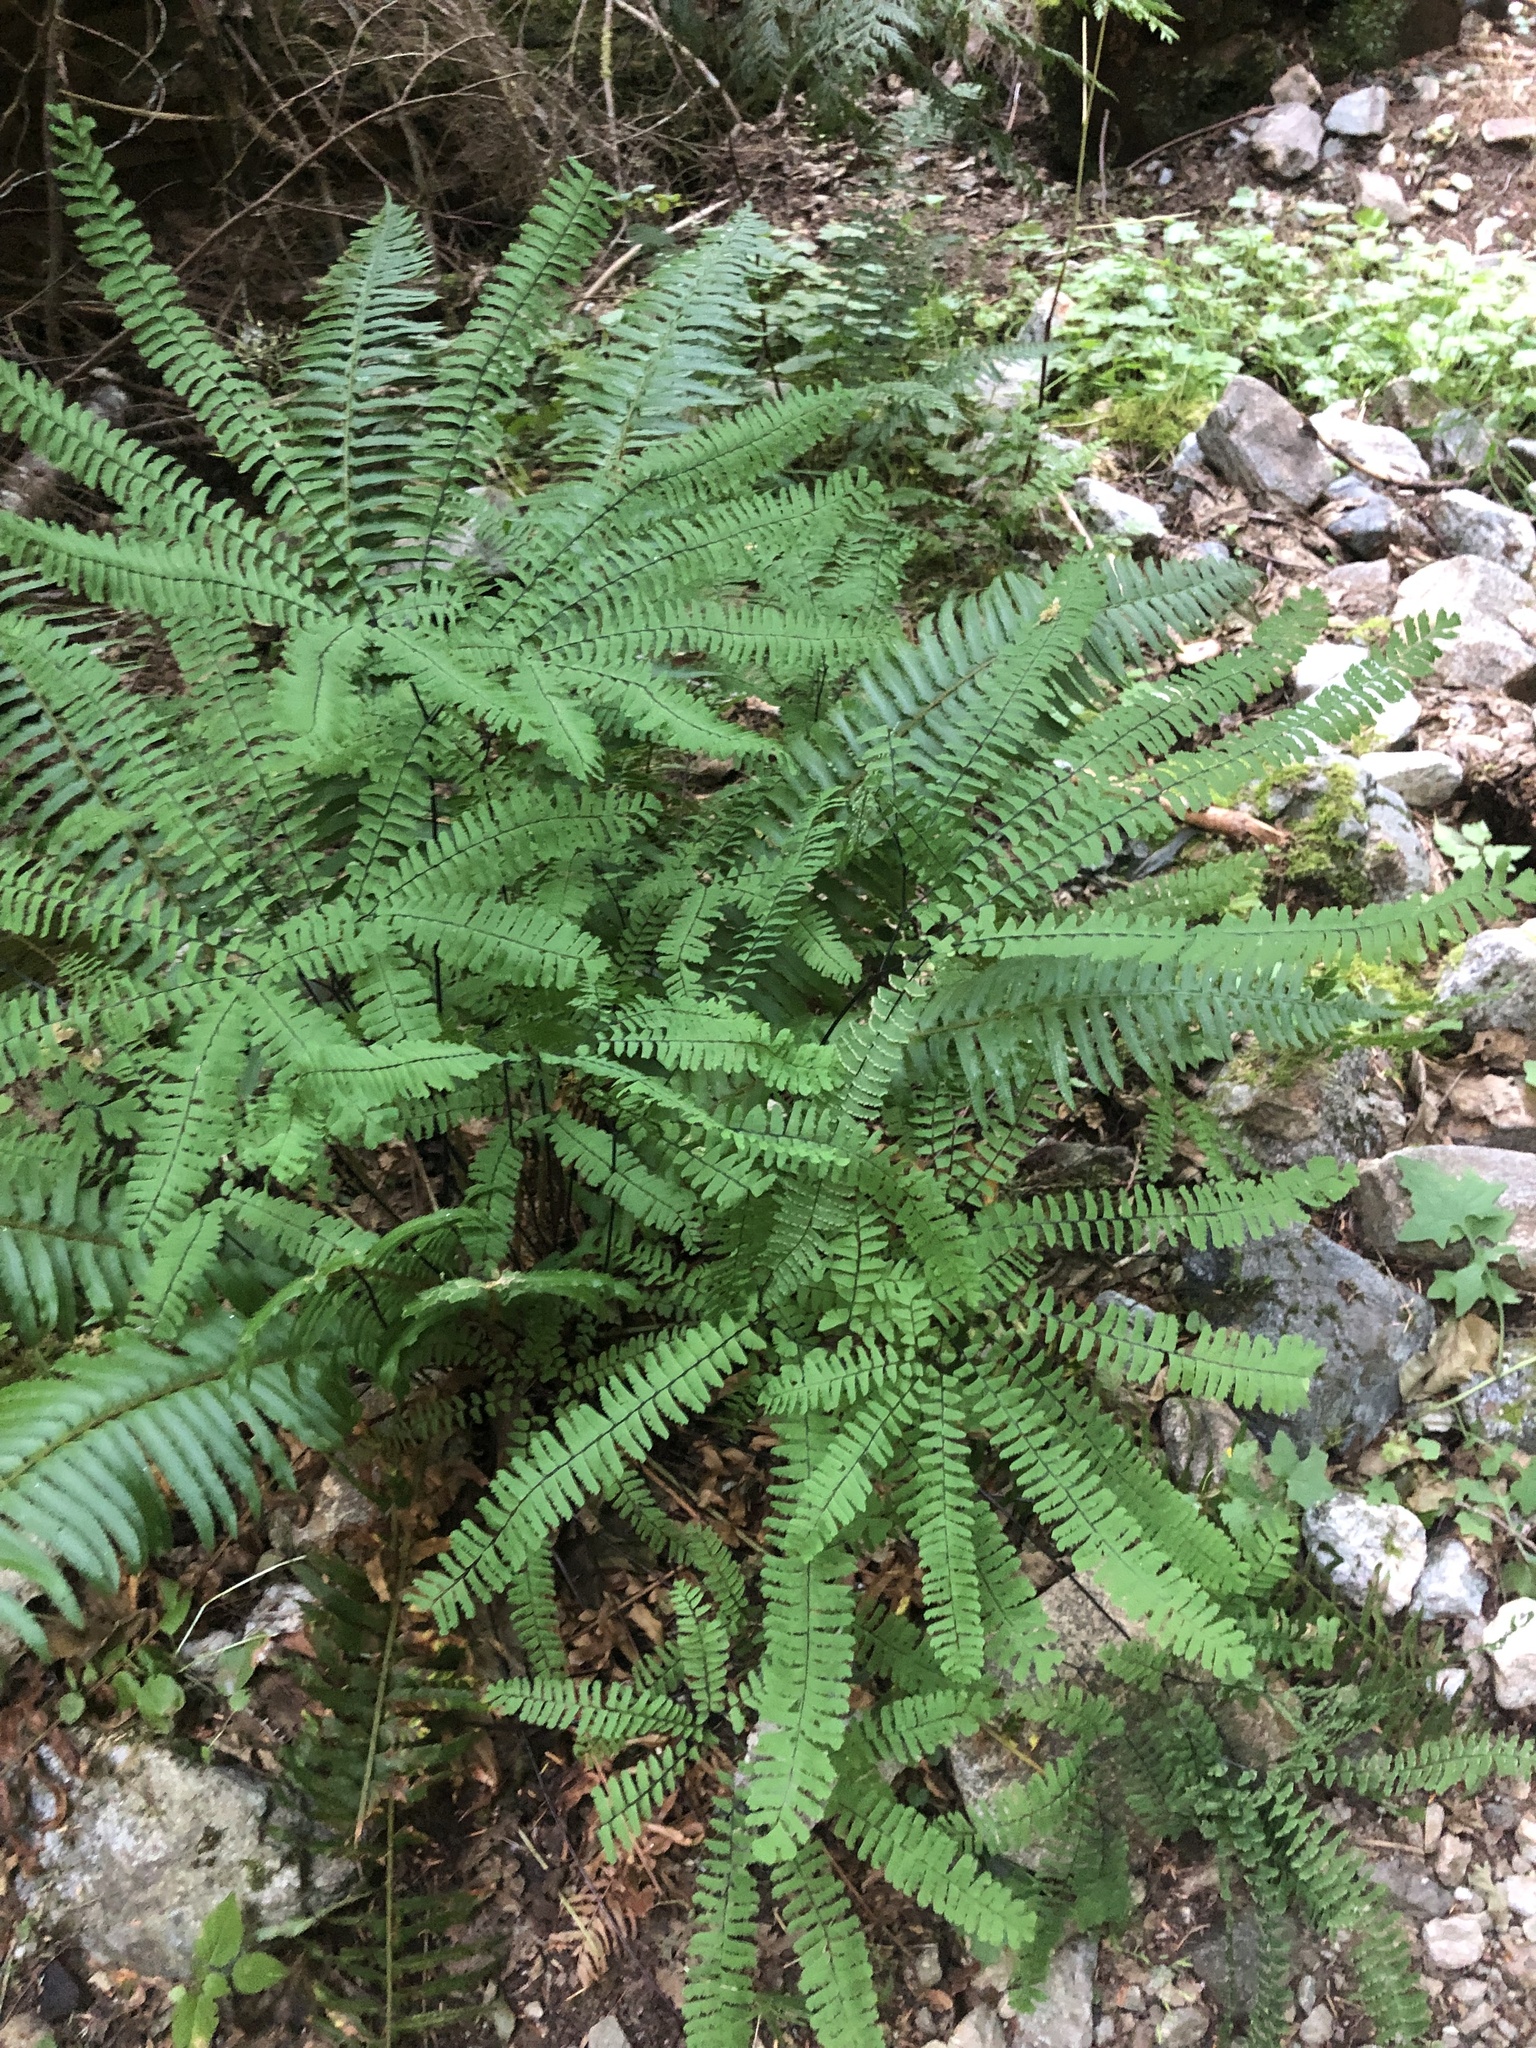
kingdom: Plantae
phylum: Tracheophyta
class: Polypodiopsida
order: Polypodiales
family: Pteridaceae
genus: Adiantum
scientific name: Adiantum aleuticum
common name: Aleutian maidenhair fern
